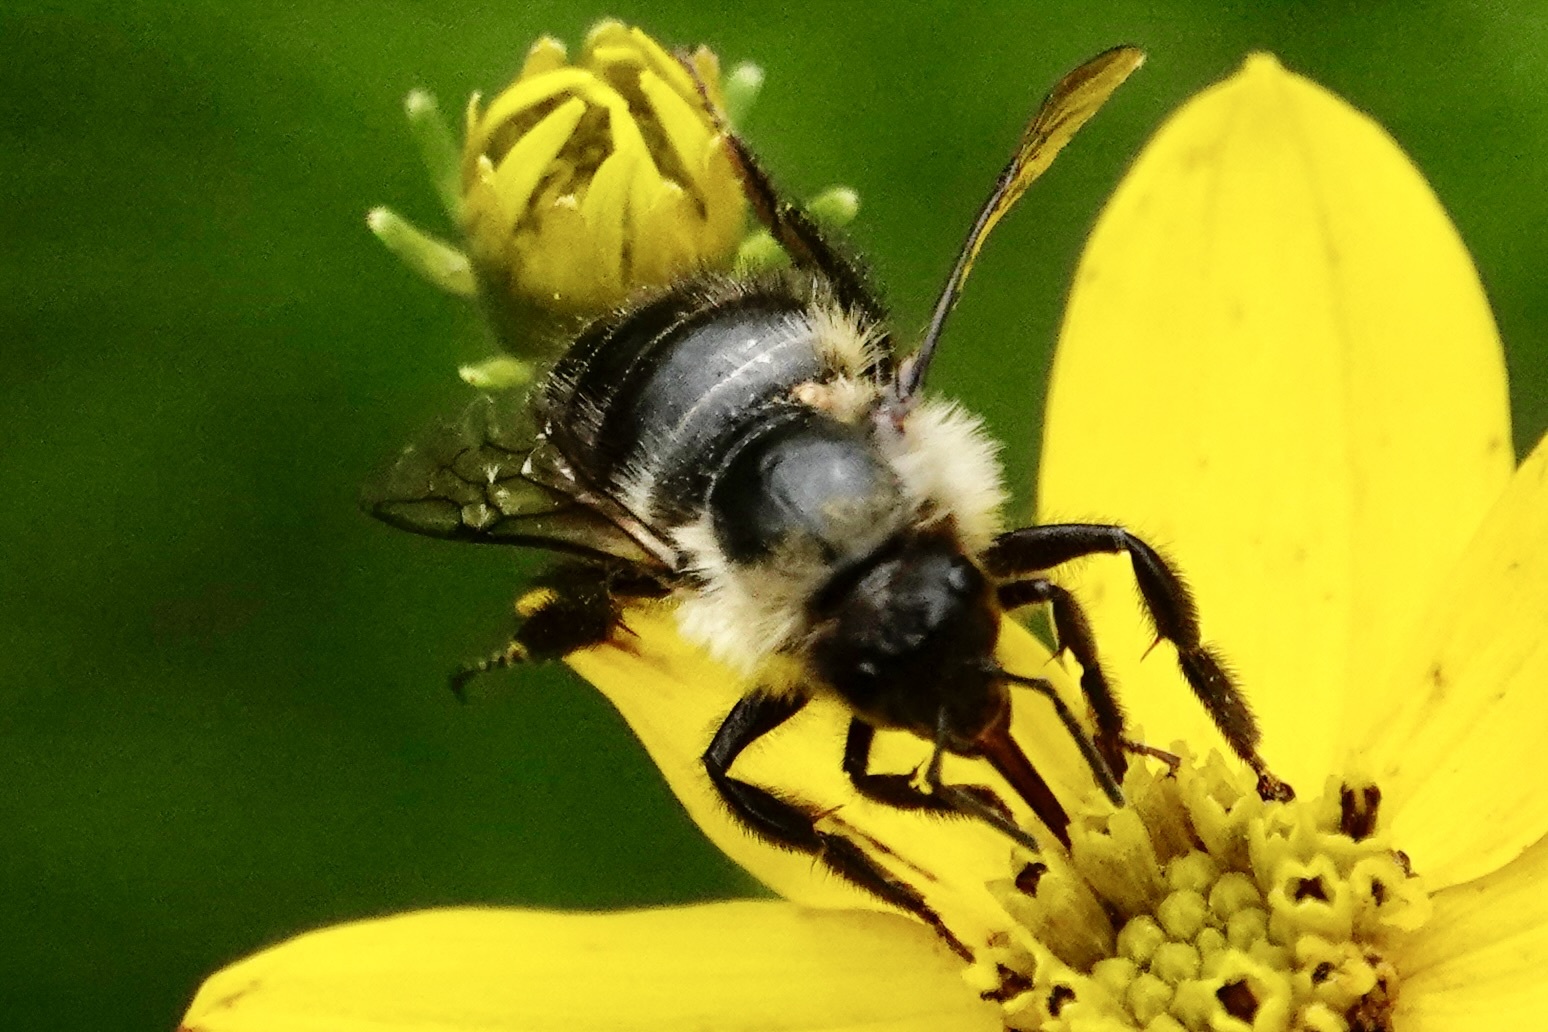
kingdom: Animalia
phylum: Arthropoda
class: Insecta
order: Hymenoptera
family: Apidae
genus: Bombus
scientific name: Bombus impatiens
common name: Common eastern bumble bee
